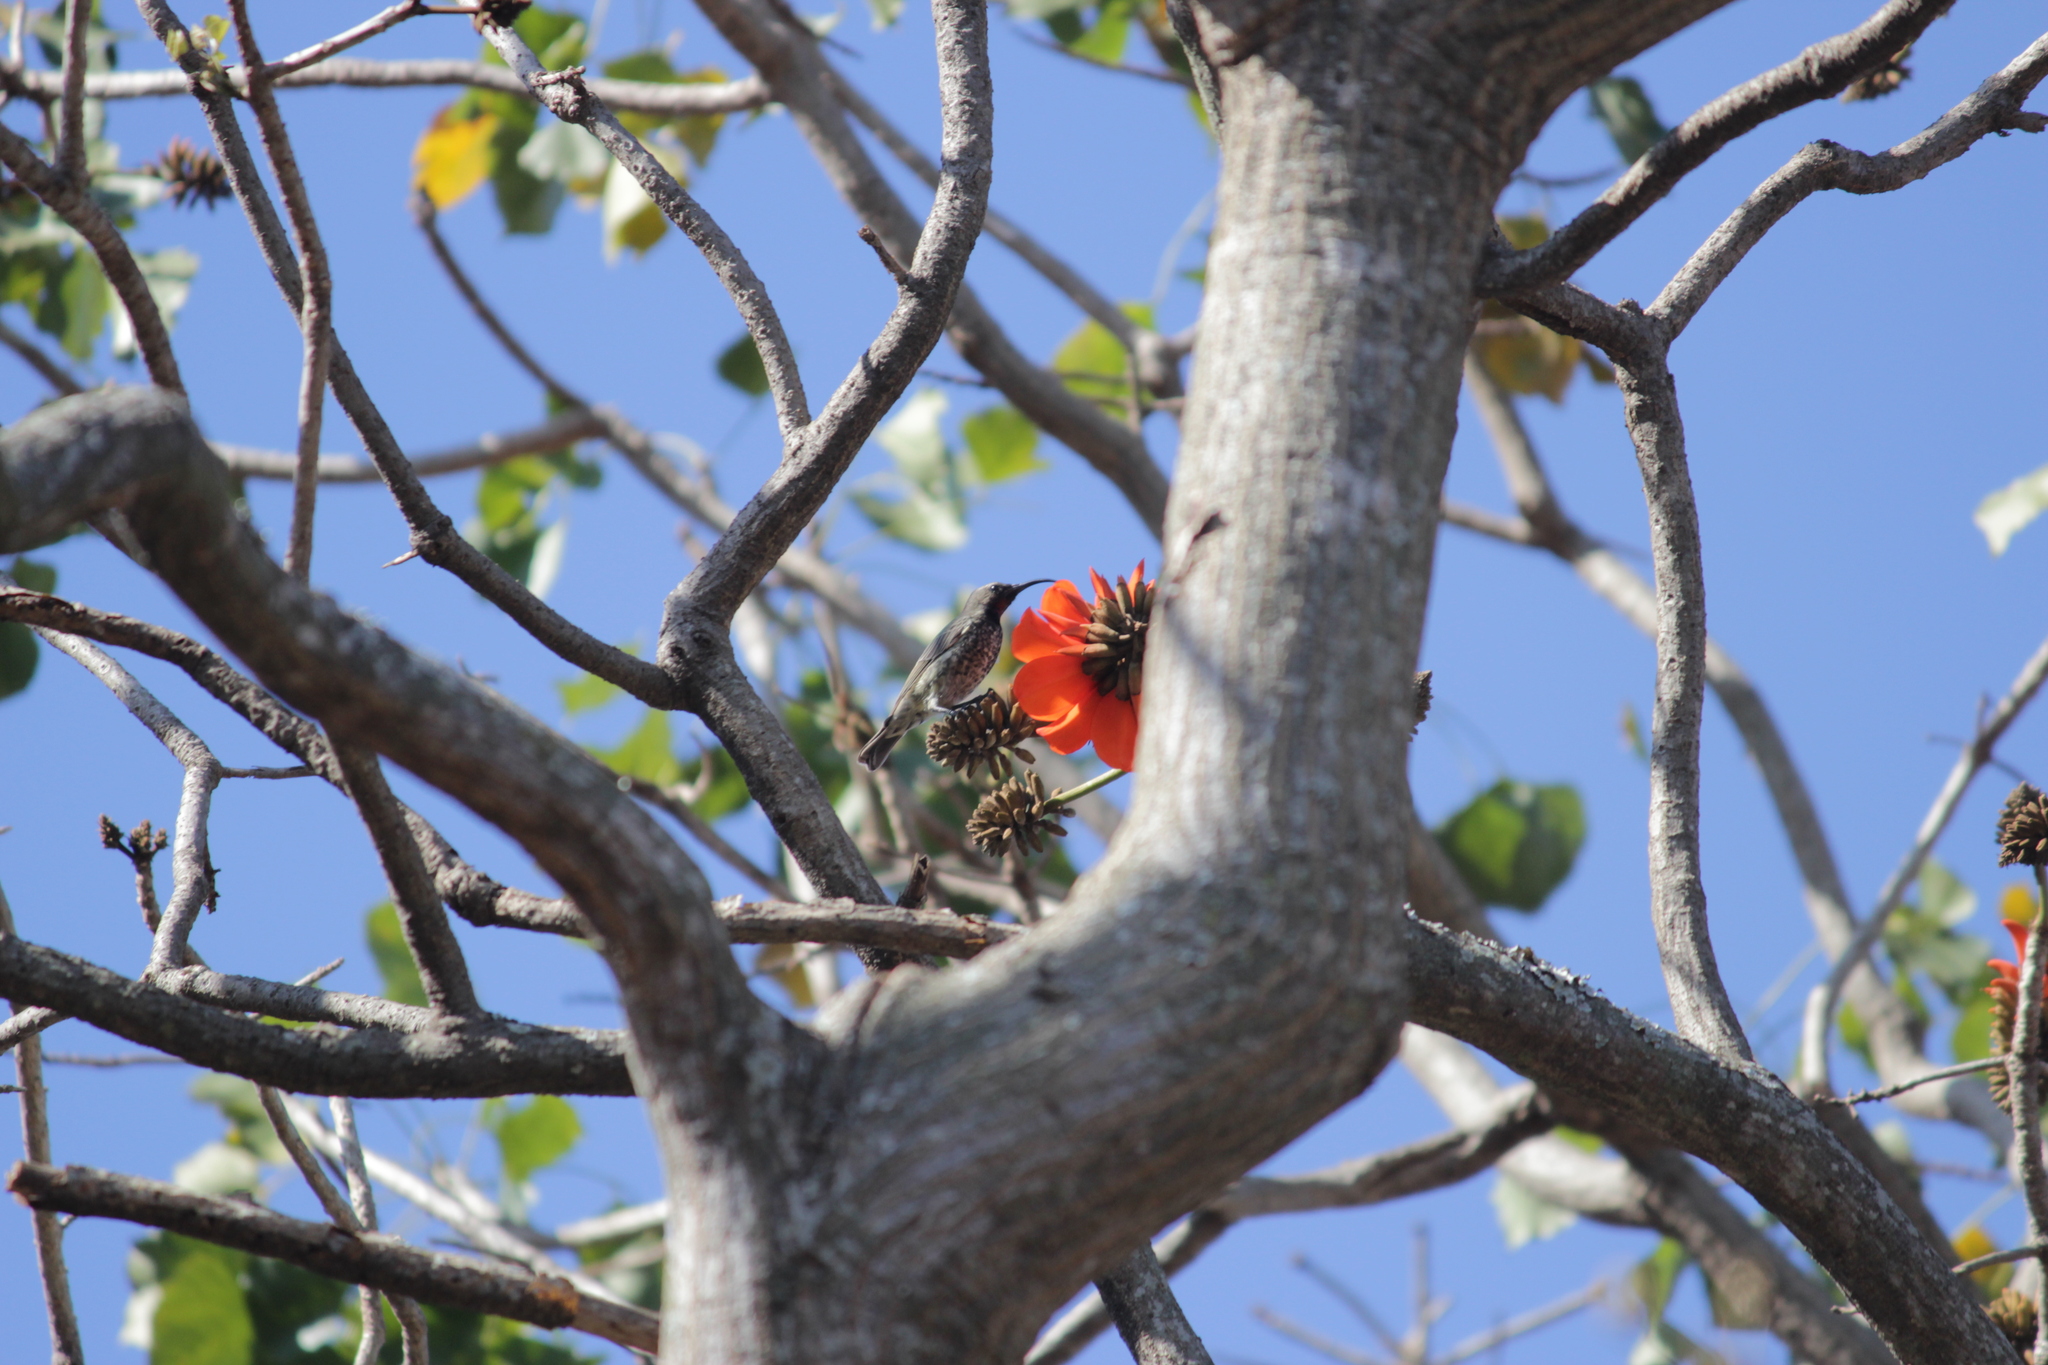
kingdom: Animalia
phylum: Chordata
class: Aves
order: Passeriformes
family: Nectariniidae
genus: Chalcomitra
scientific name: Chalcomitra amethystina
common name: Amethyst sunbird
